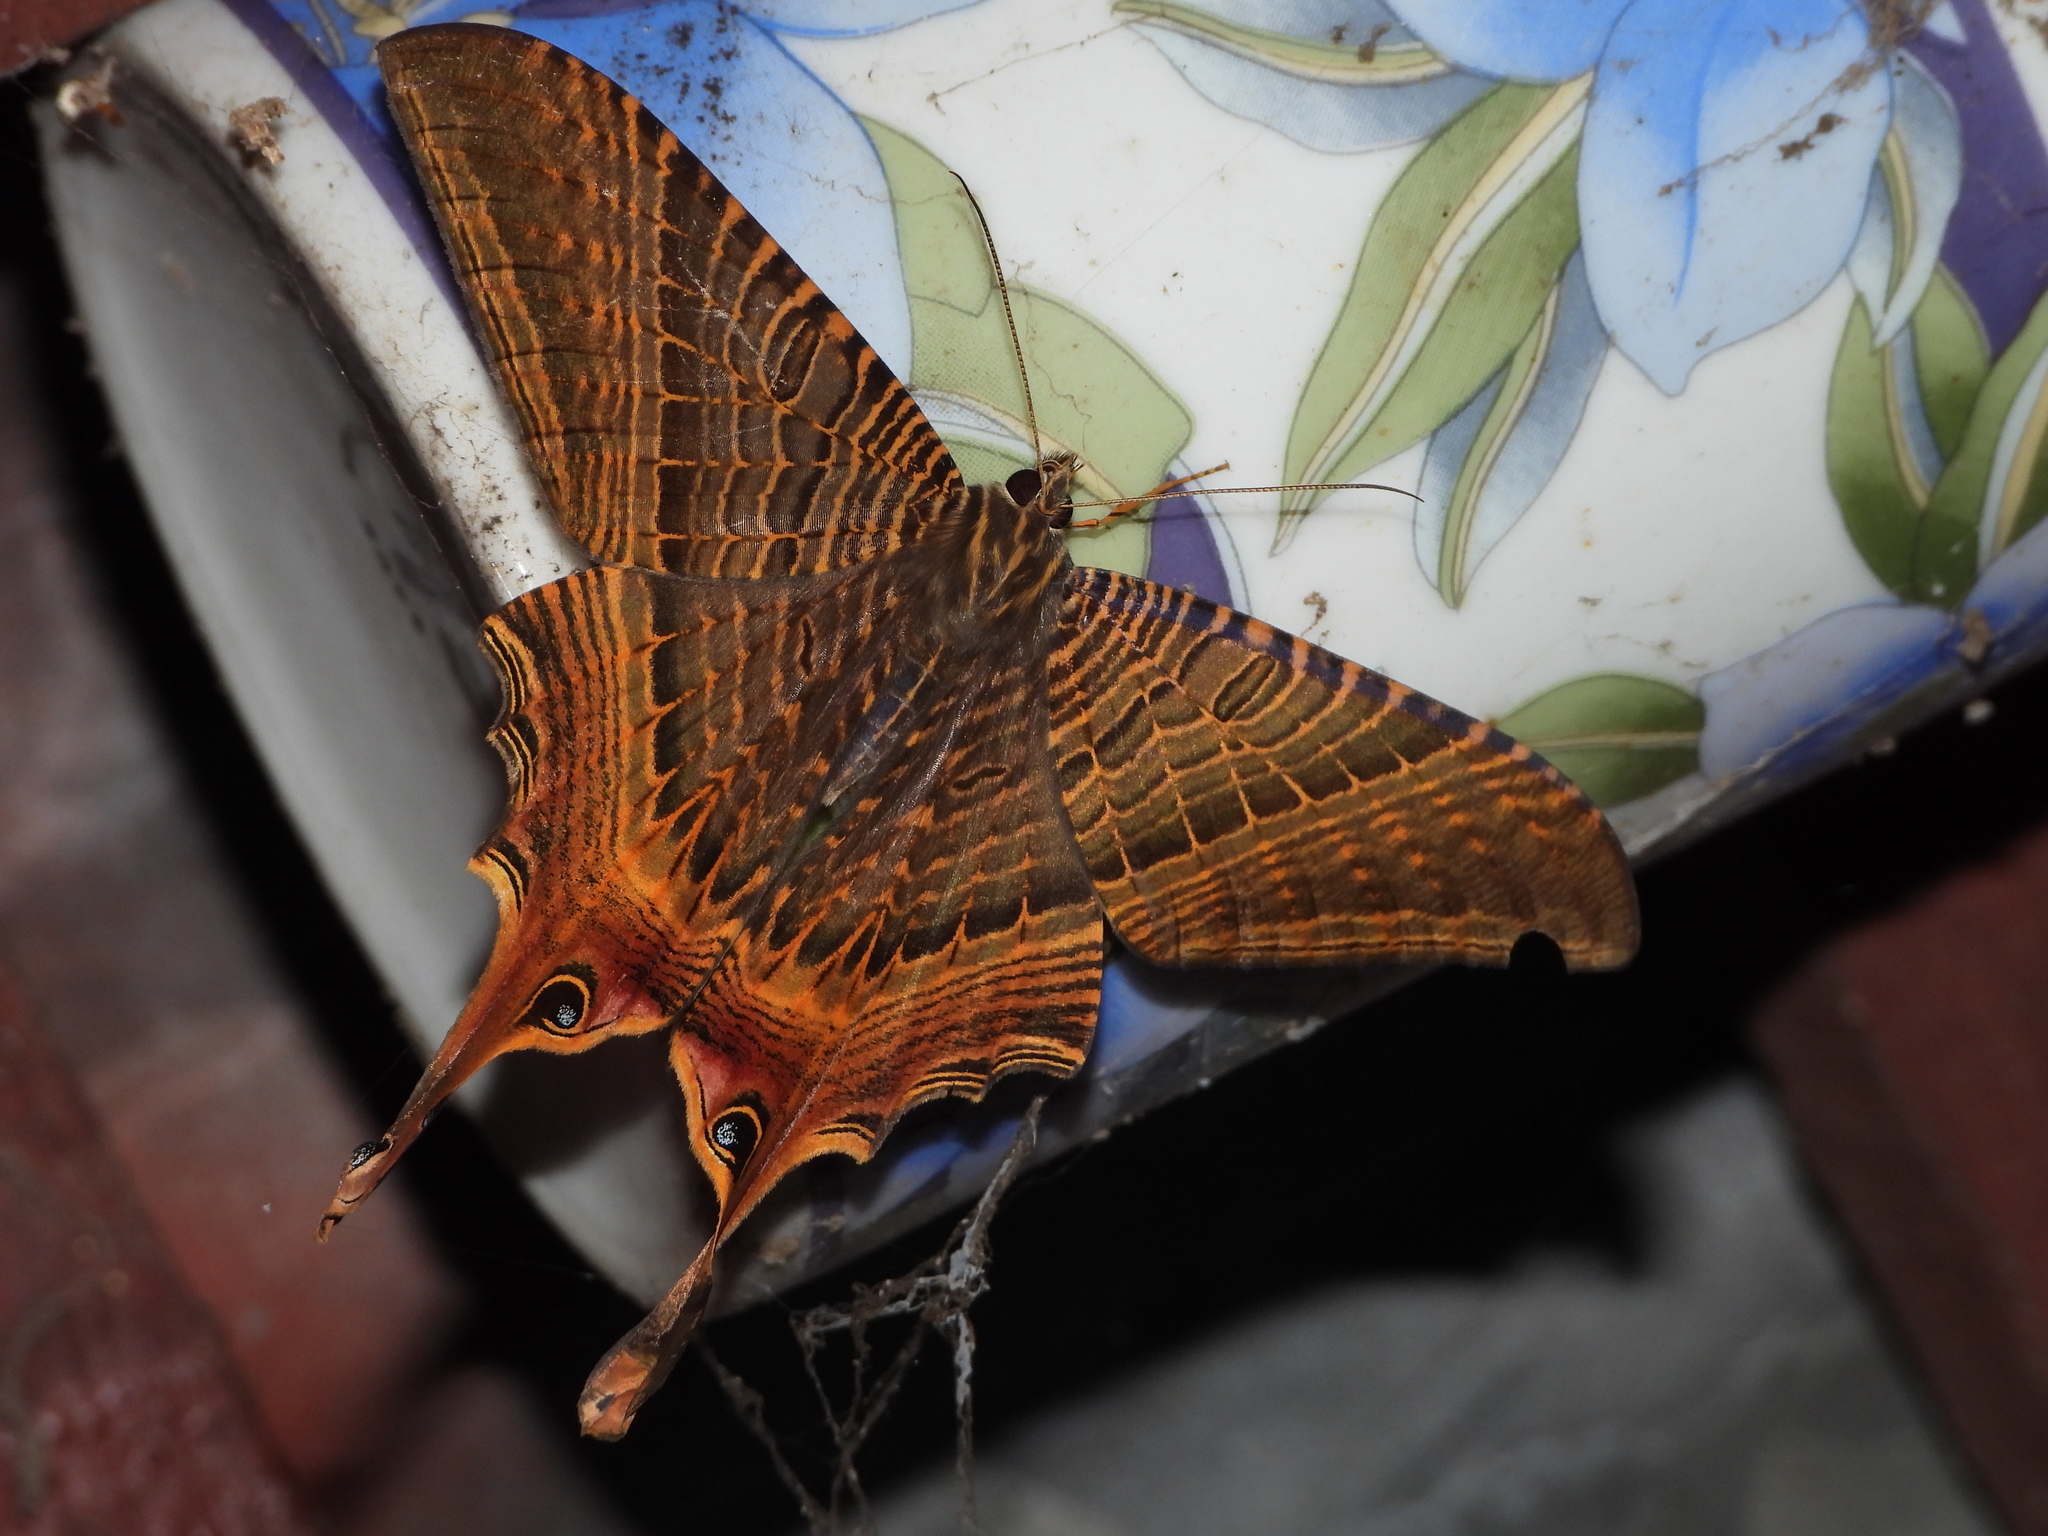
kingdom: Animalia
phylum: Arthropoda
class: Insecta
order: Lepidoptera
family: Sematuridae
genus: Nothus
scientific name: Nothus lunus
